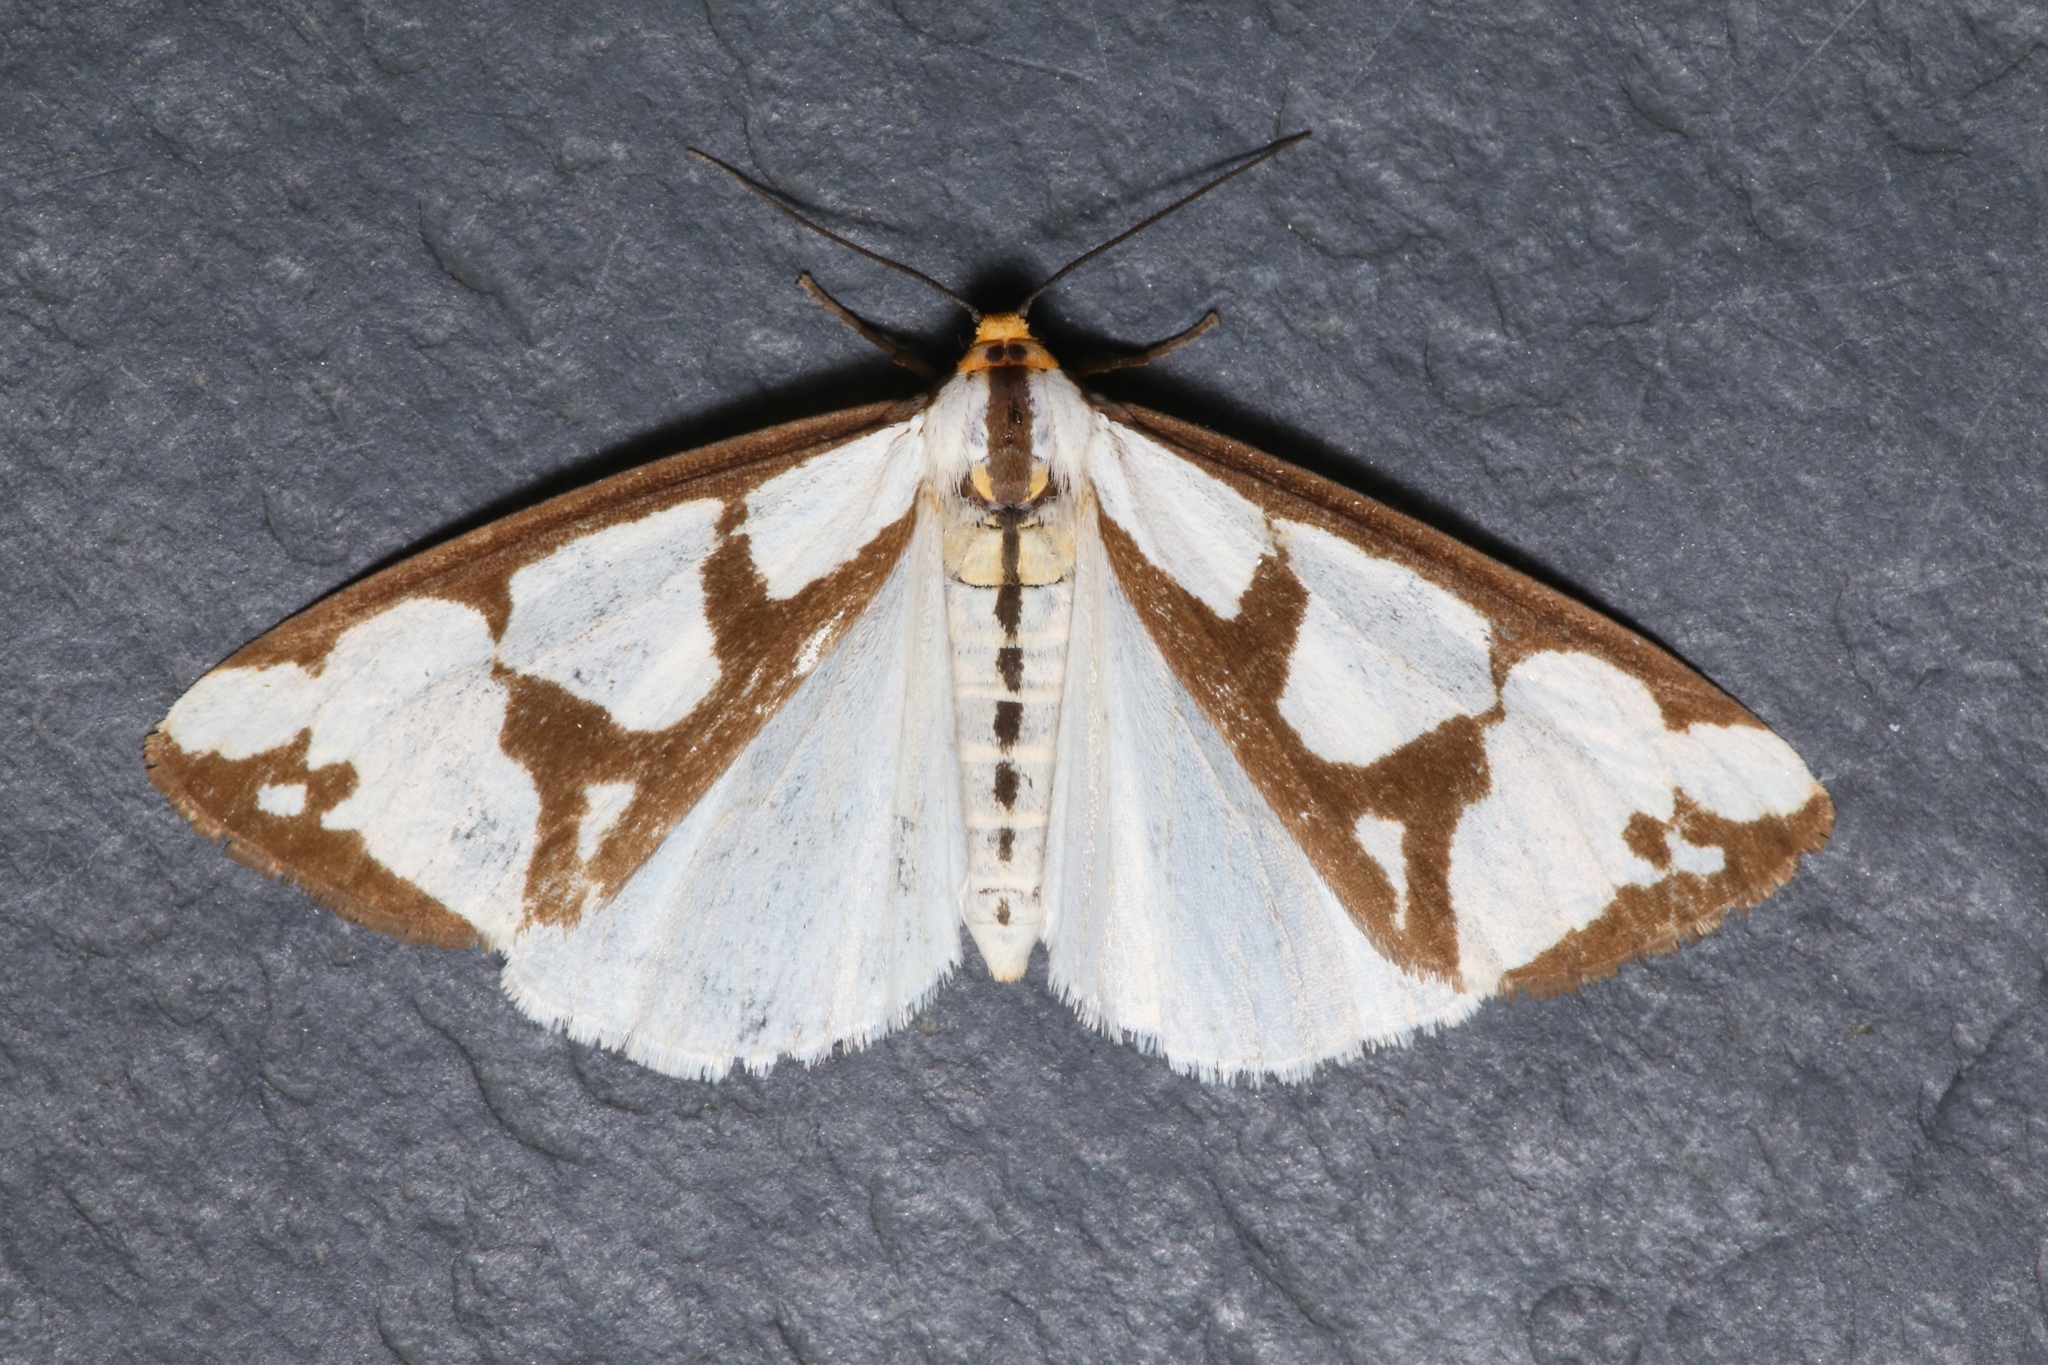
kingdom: Animalia
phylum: Arthropoda
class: Insecta
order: Lepidoptera
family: Erebidae
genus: Haploa
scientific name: Haploa lecontei
